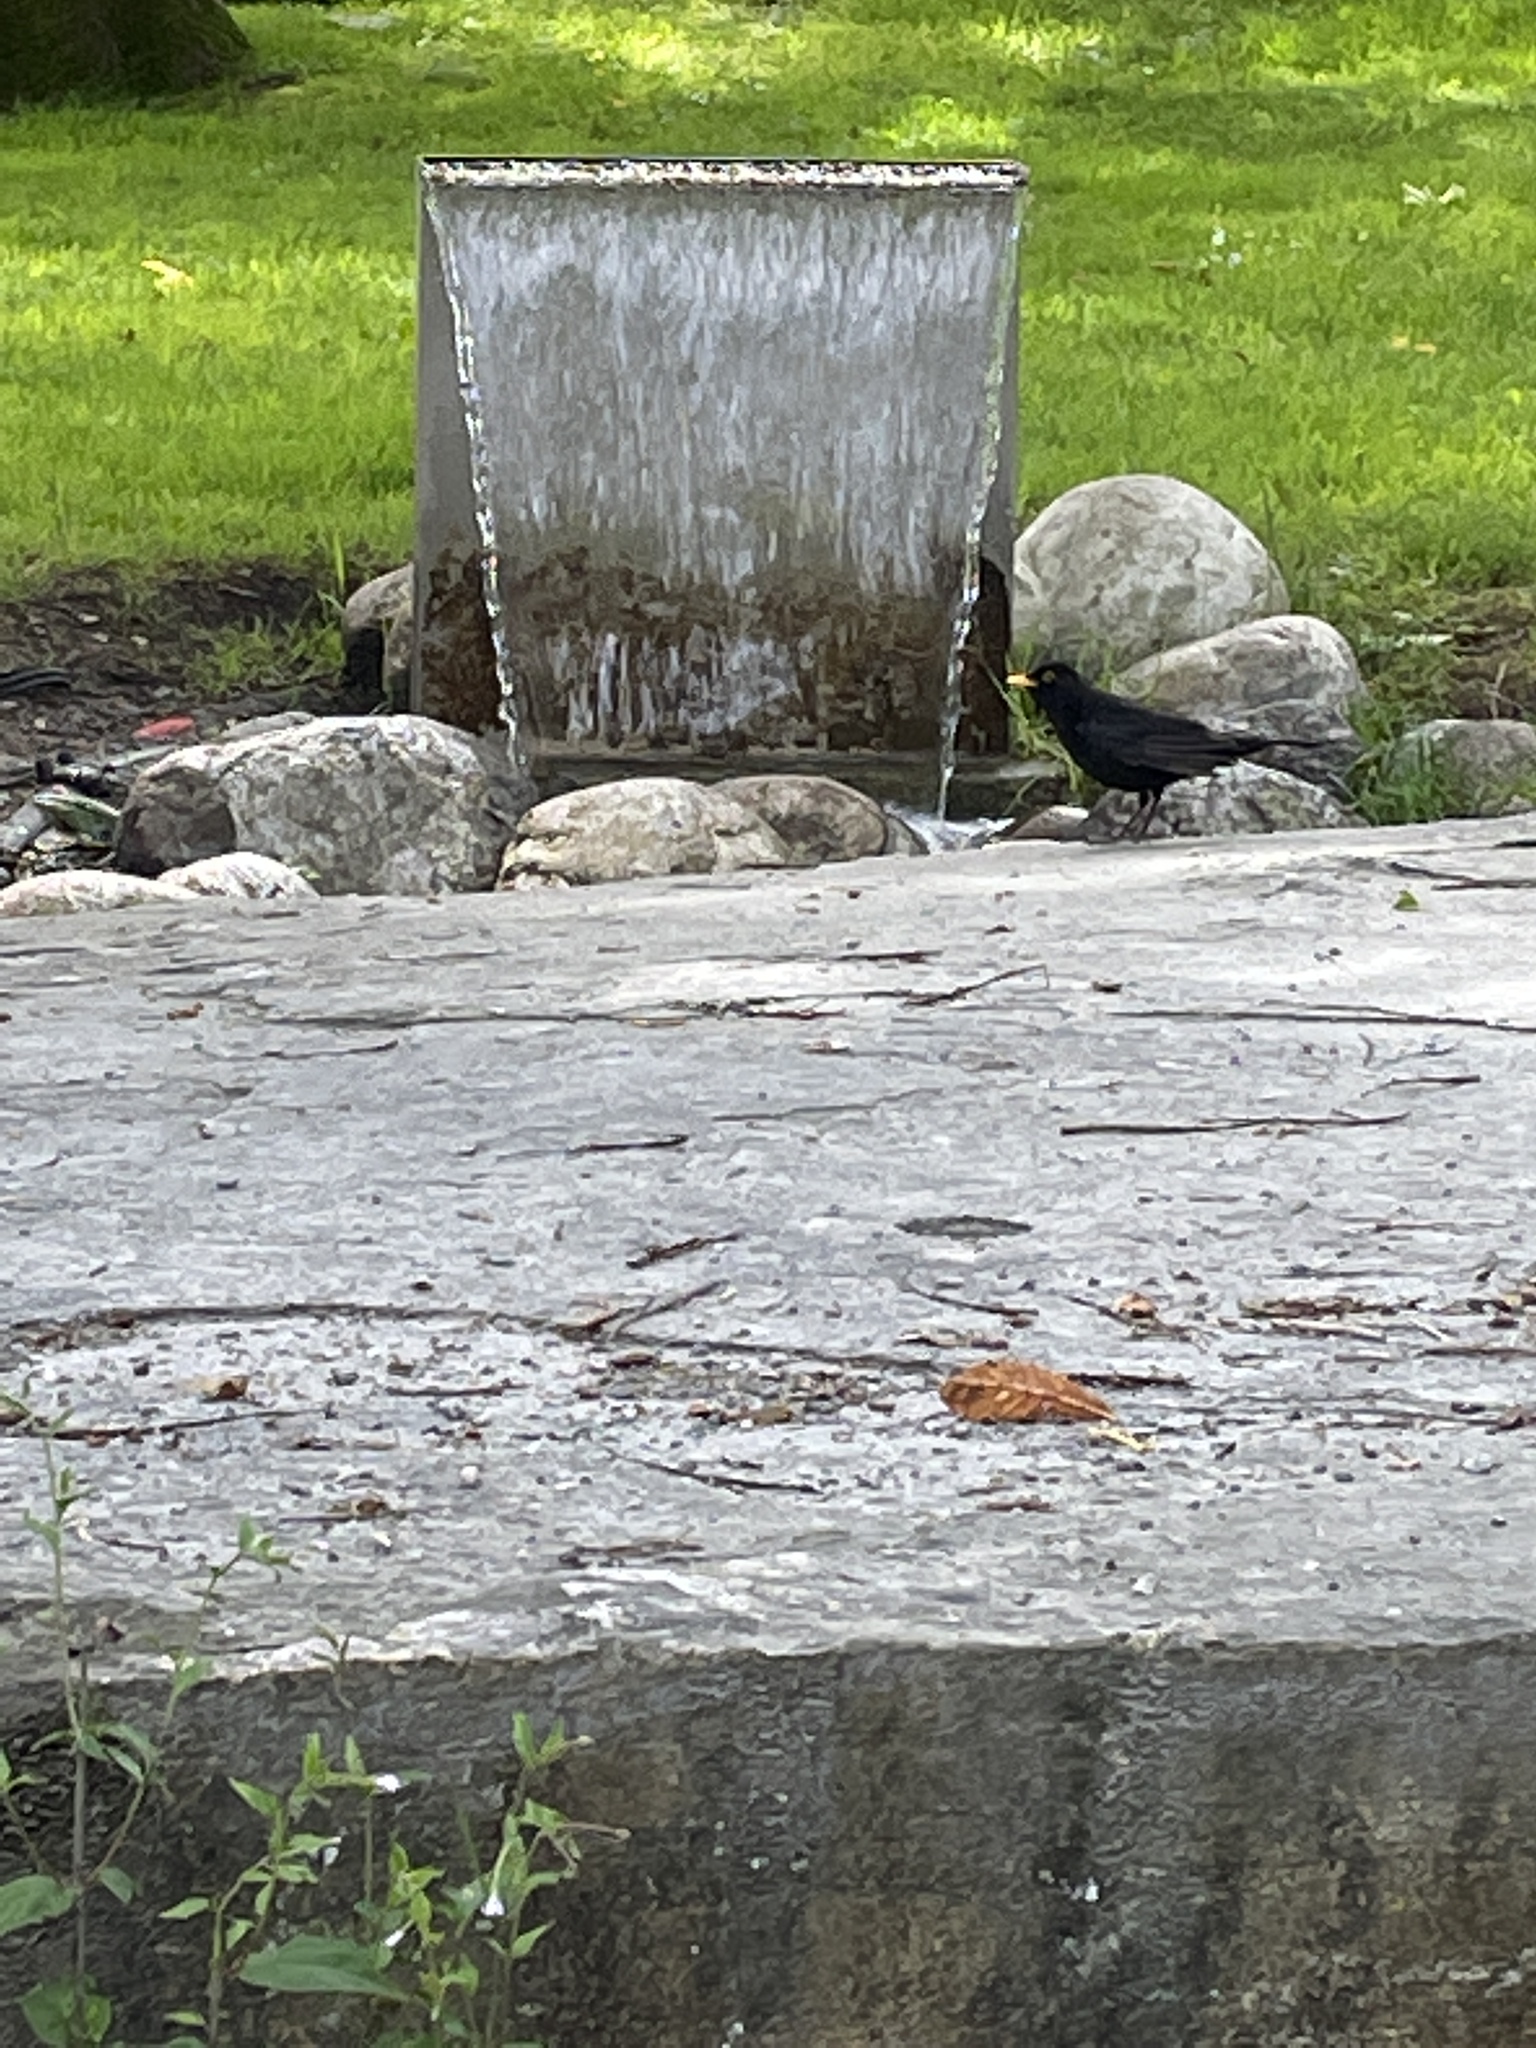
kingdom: Animalia
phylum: Chordata
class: Aves
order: Passeriformes
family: Turdidae
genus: Turdus
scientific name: Turdus merula
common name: Common blackbird
